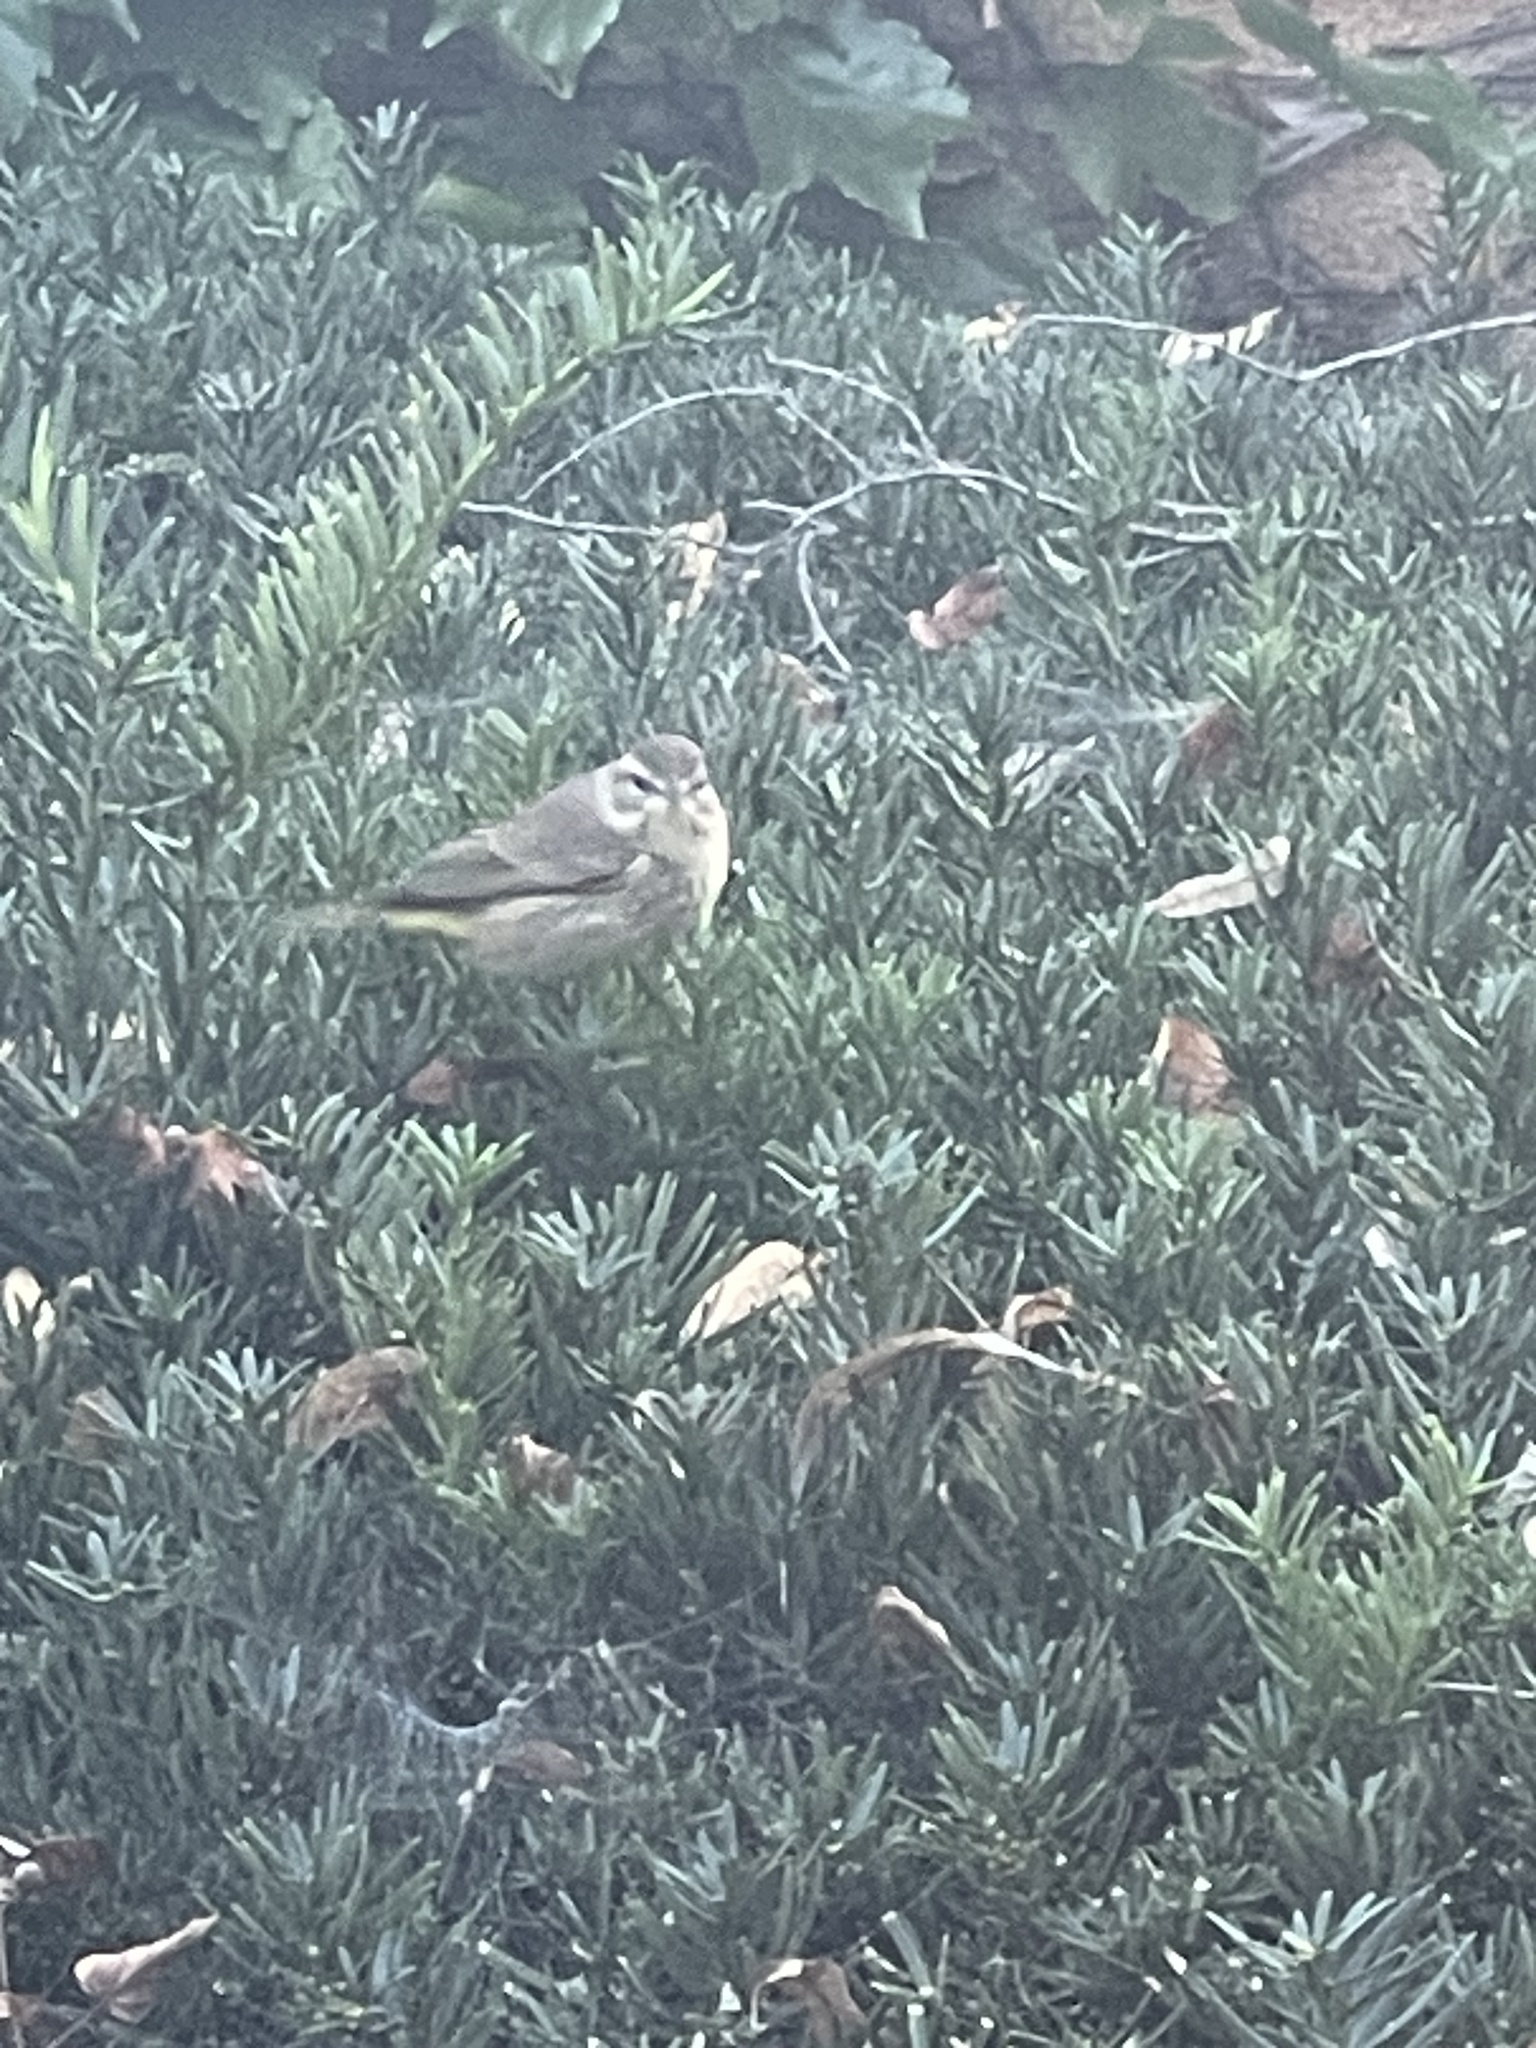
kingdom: Animalia
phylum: Chordata
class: Aves
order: Passeriformes
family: Parulidae
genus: Setophaga
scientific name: Setophaga palmarum
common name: Palm warbler
